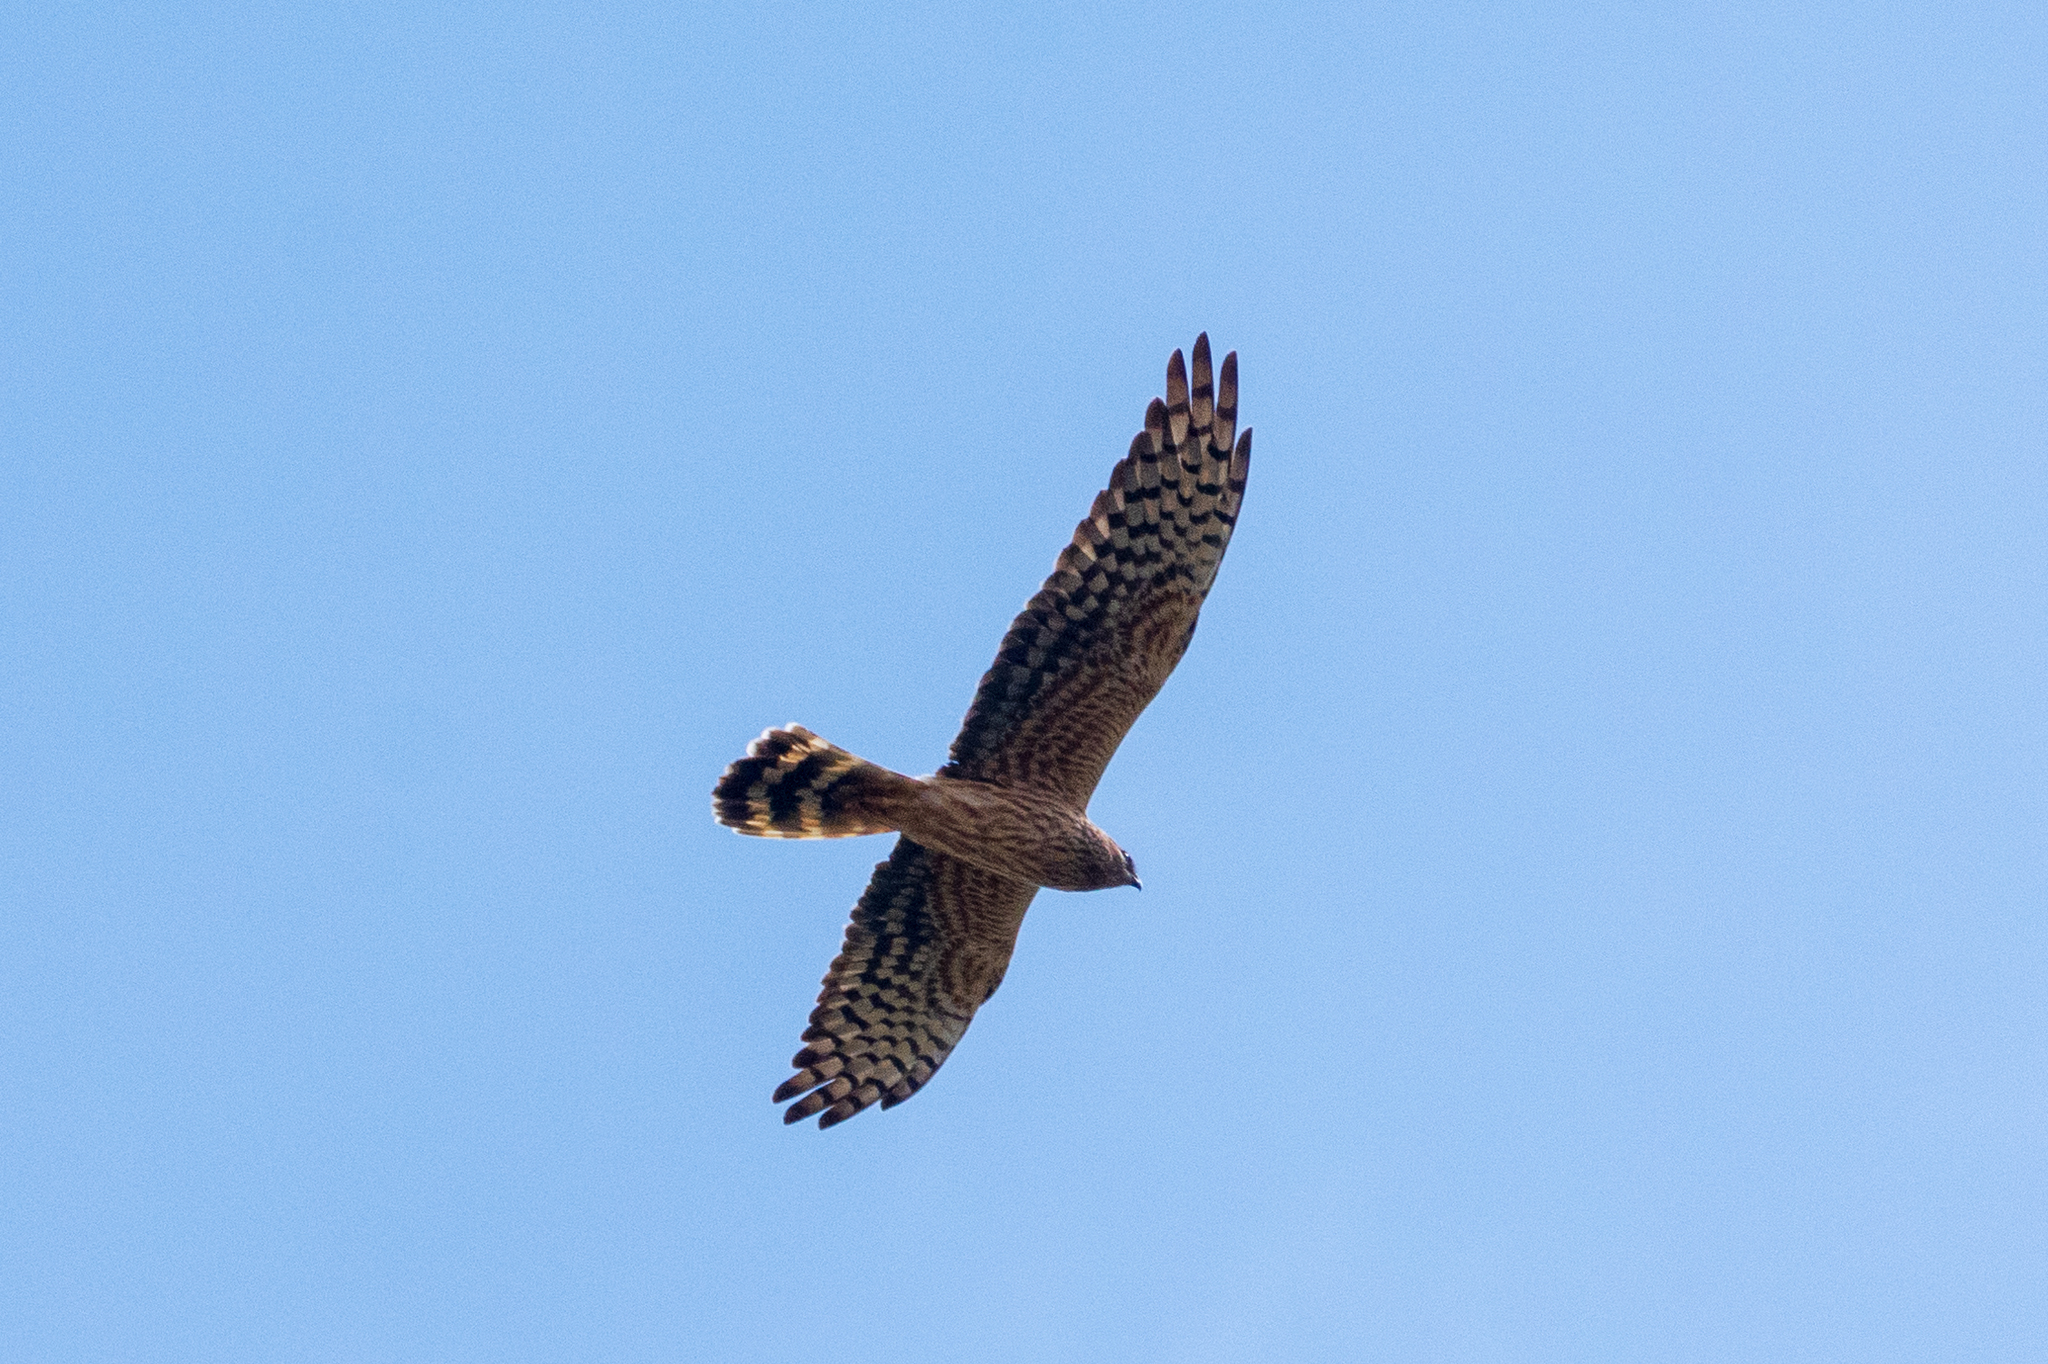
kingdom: Animalia
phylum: Chordata
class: Aves
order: Accipitriformes
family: Accipitridae
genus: Circus
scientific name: Circus pygargus
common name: Montagu's harrier
